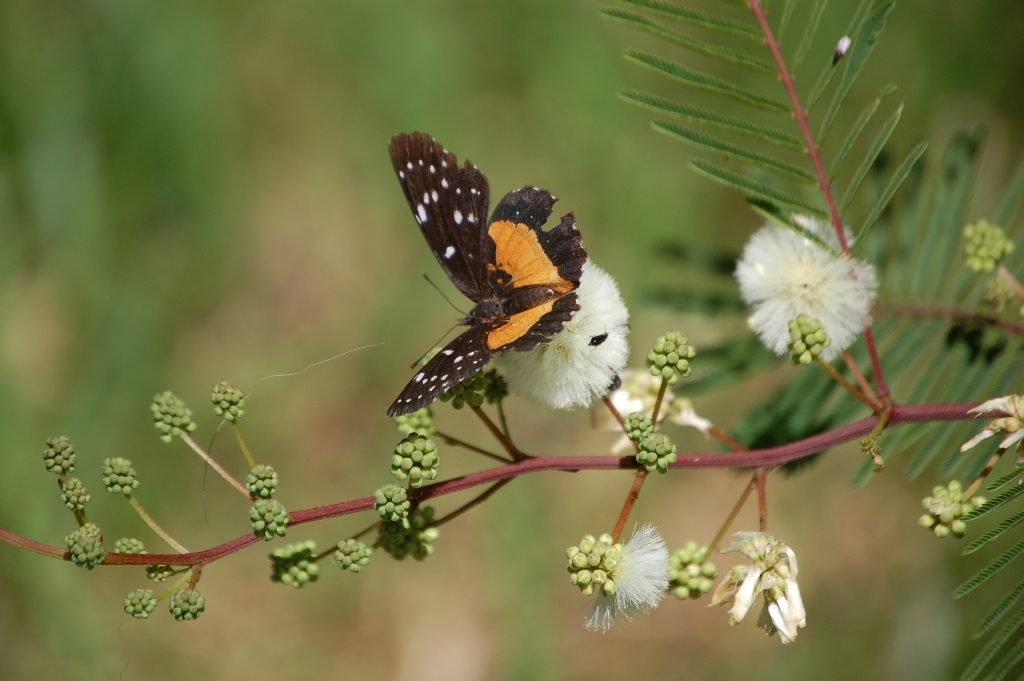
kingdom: Animalia
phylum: Arthropoda
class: Insecta
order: Lepidoptera
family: Nymphalidae
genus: Chlosyne
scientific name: Chlosyne lacinia
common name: Bordered patch
